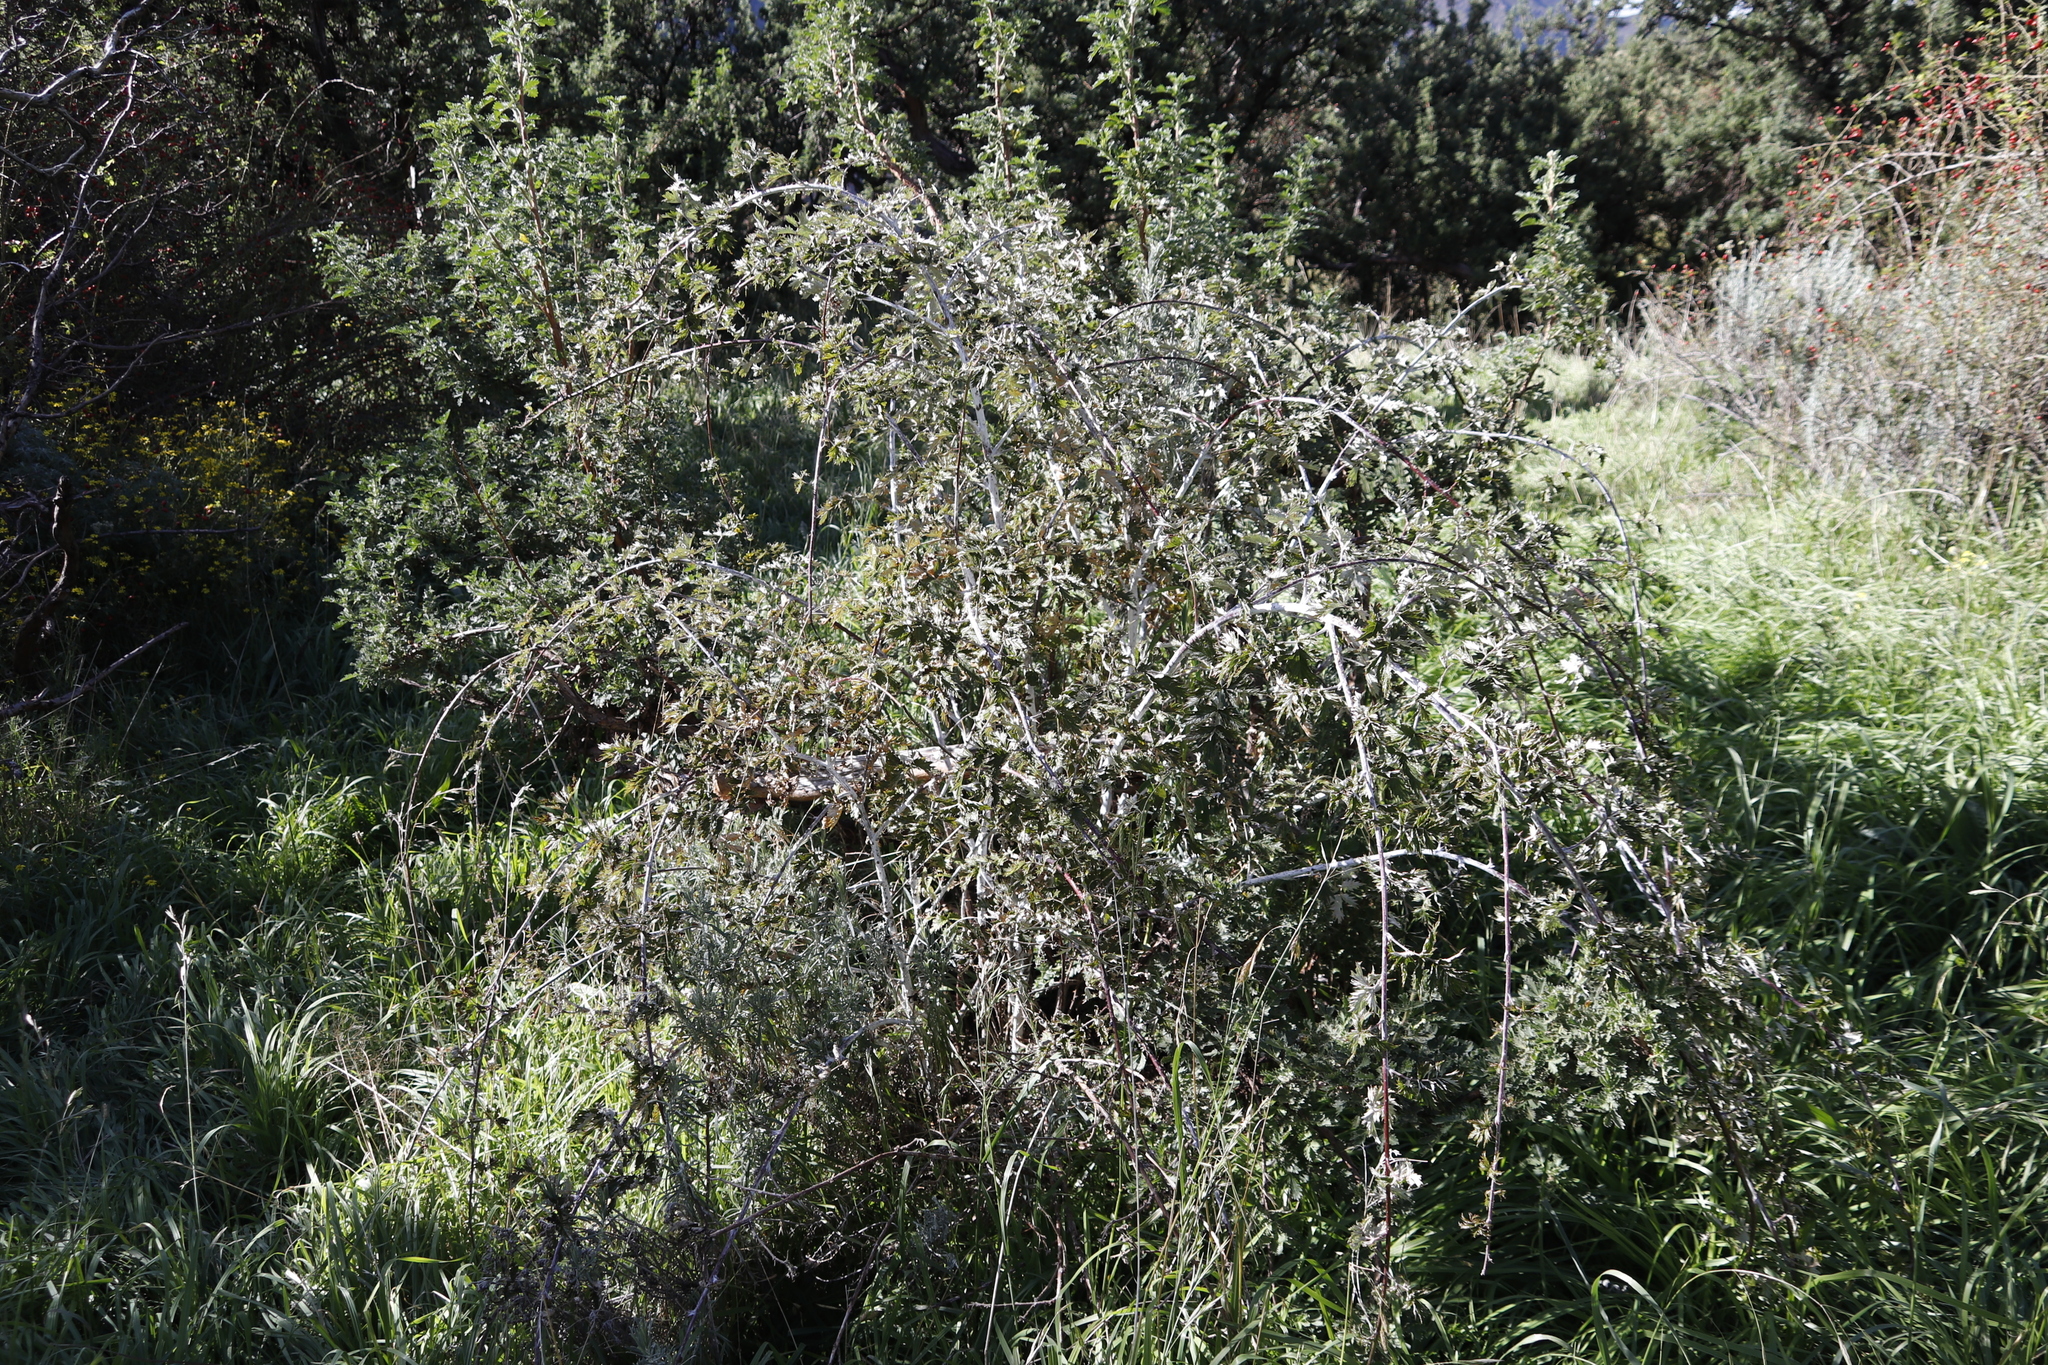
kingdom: Plantae
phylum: Tracheophyta
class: Magnoliopsida
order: Rosales
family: Rosaceae
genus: Rubus
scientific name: Rubus ludwigii
